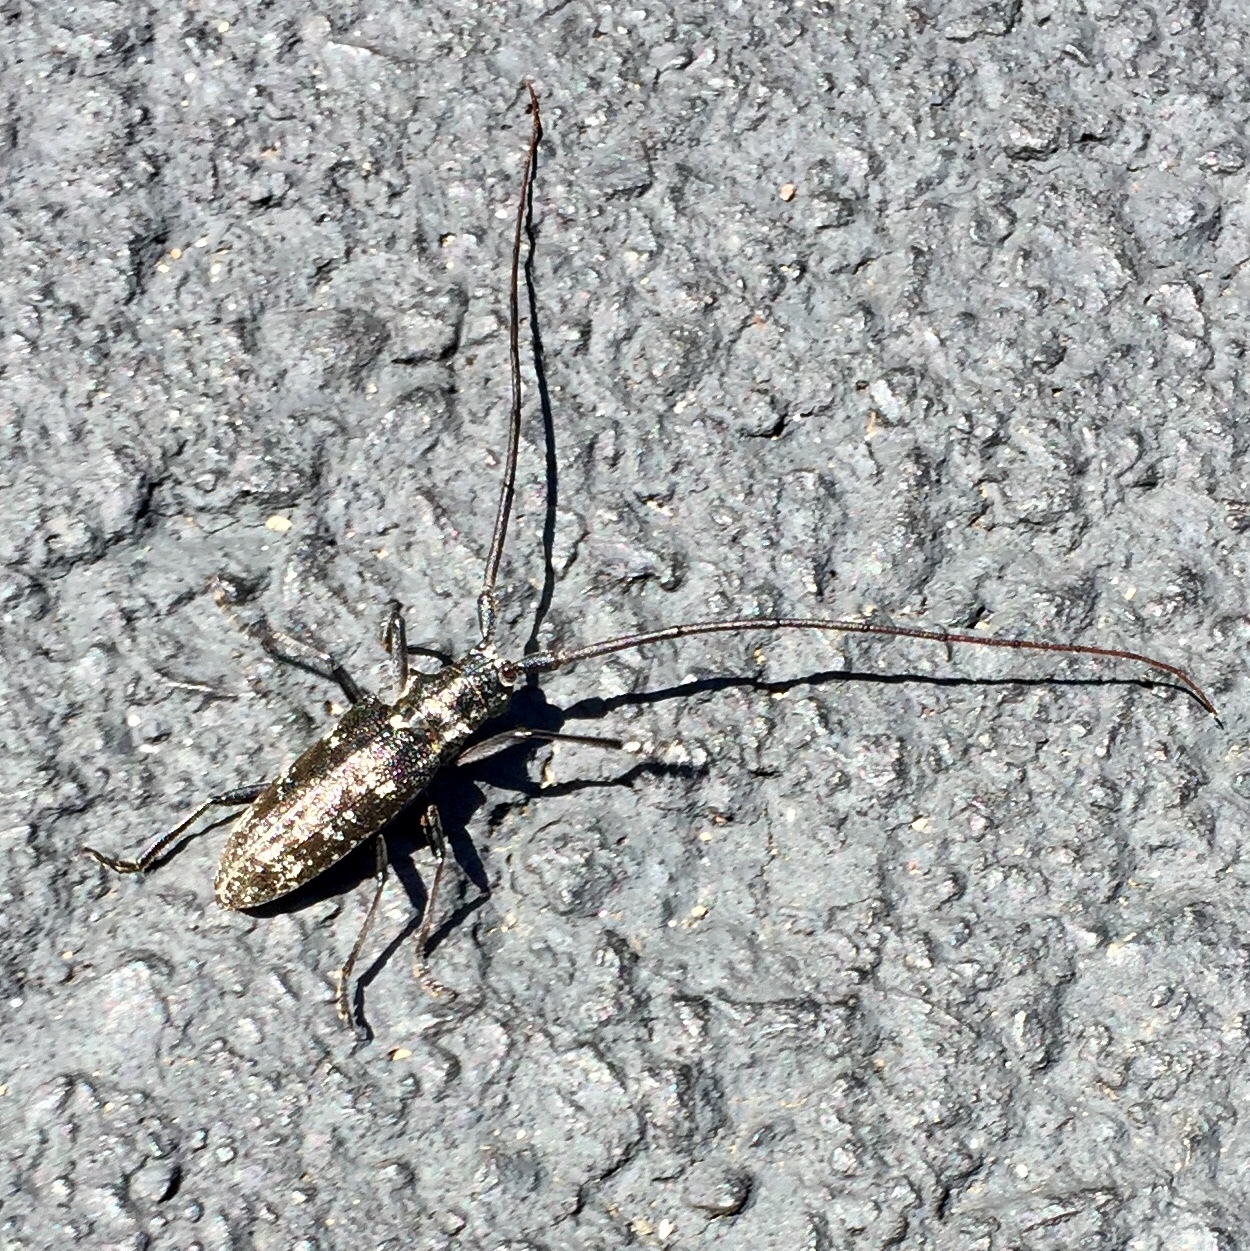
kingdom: Animalia
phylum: Arthropoda
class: Insecta
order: Coleoptera
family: Cerambycidae
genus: Monochamus
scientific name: Monochamus scutellatus
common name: White-spotted sawyer beetle
